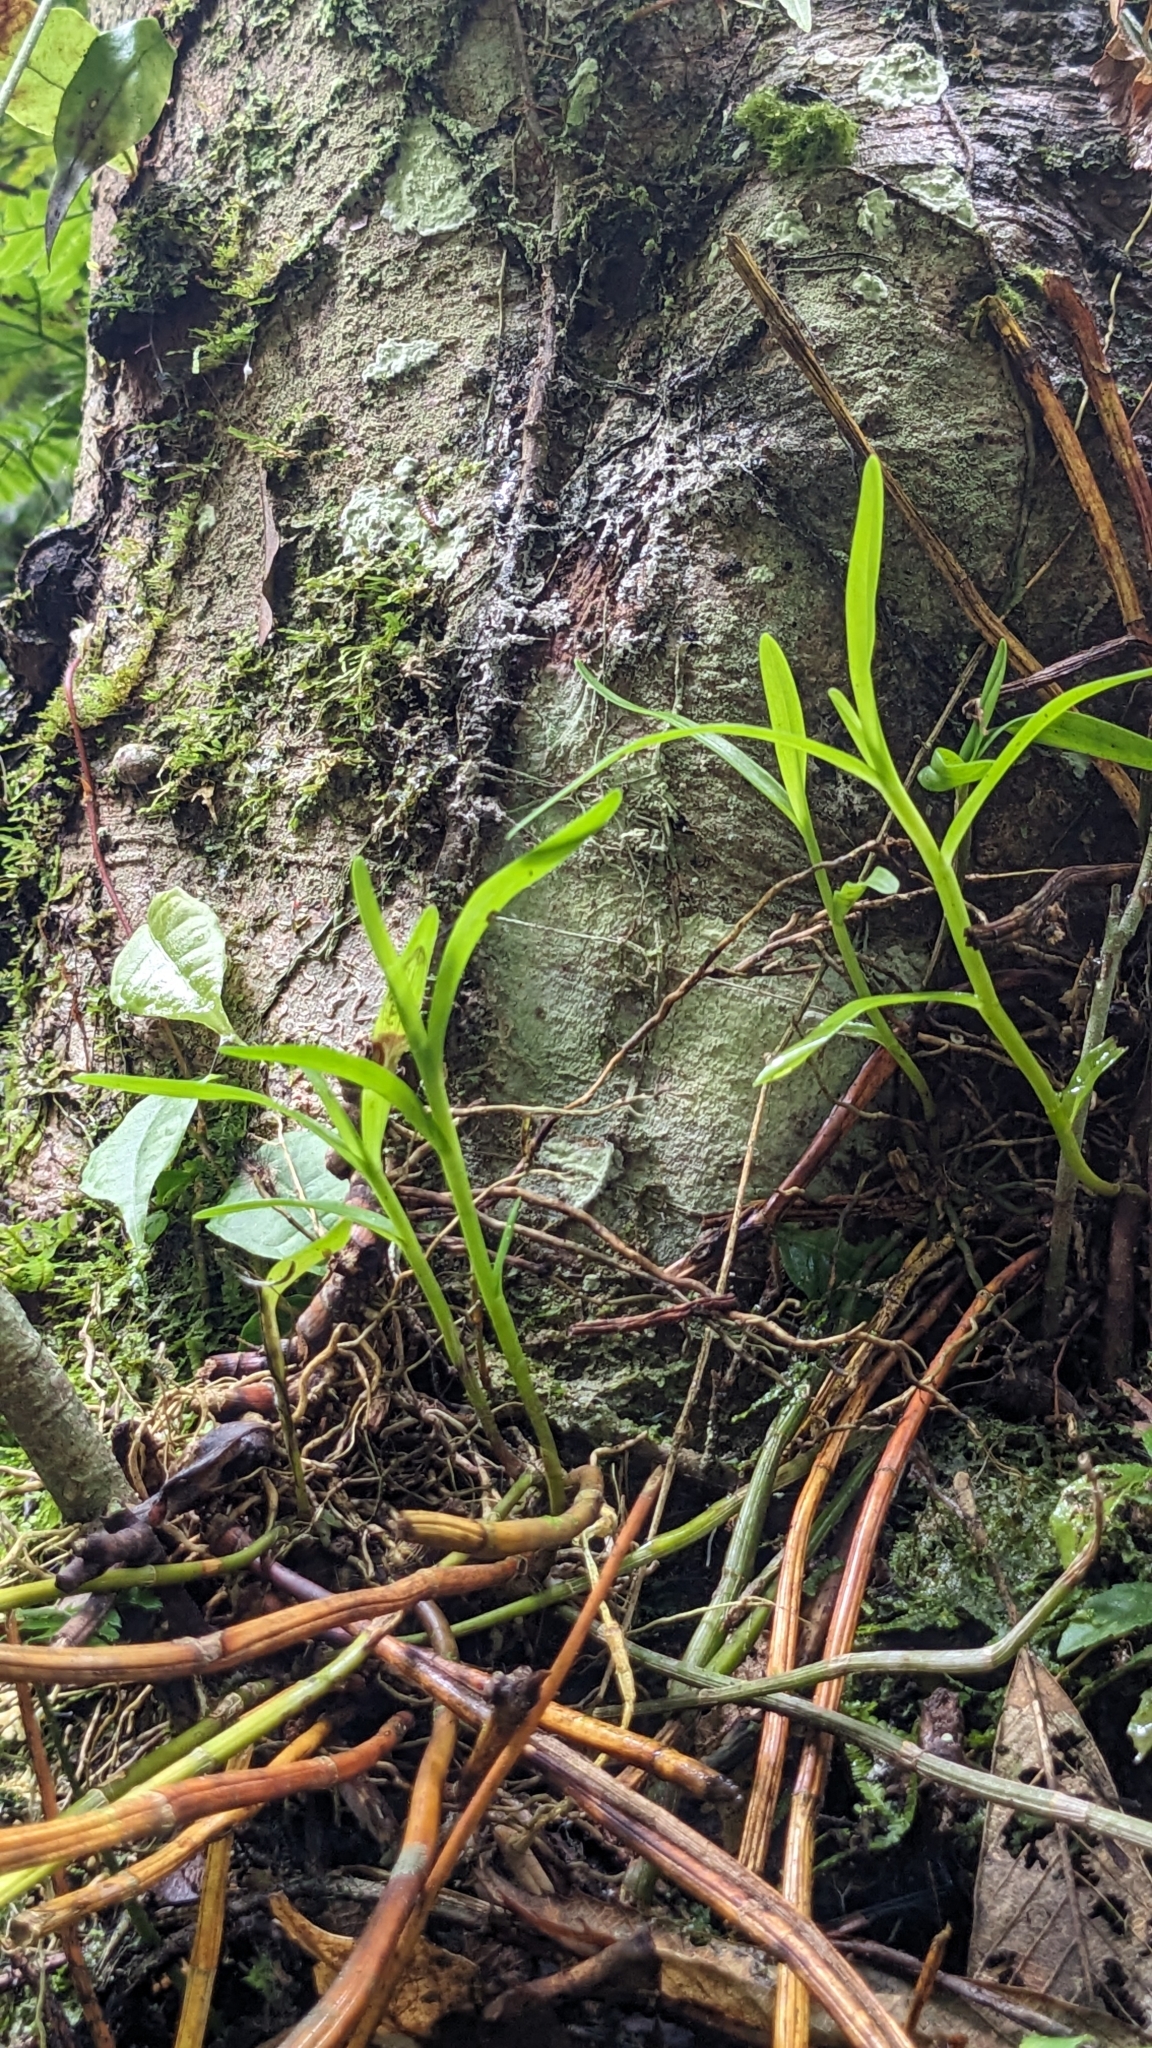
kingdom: Plantae
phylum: Tracheophyta
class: Liliopsida
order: Asparagales
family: Orchidaceae
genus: Dendrobium
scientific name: Dendrobium moniliforme
